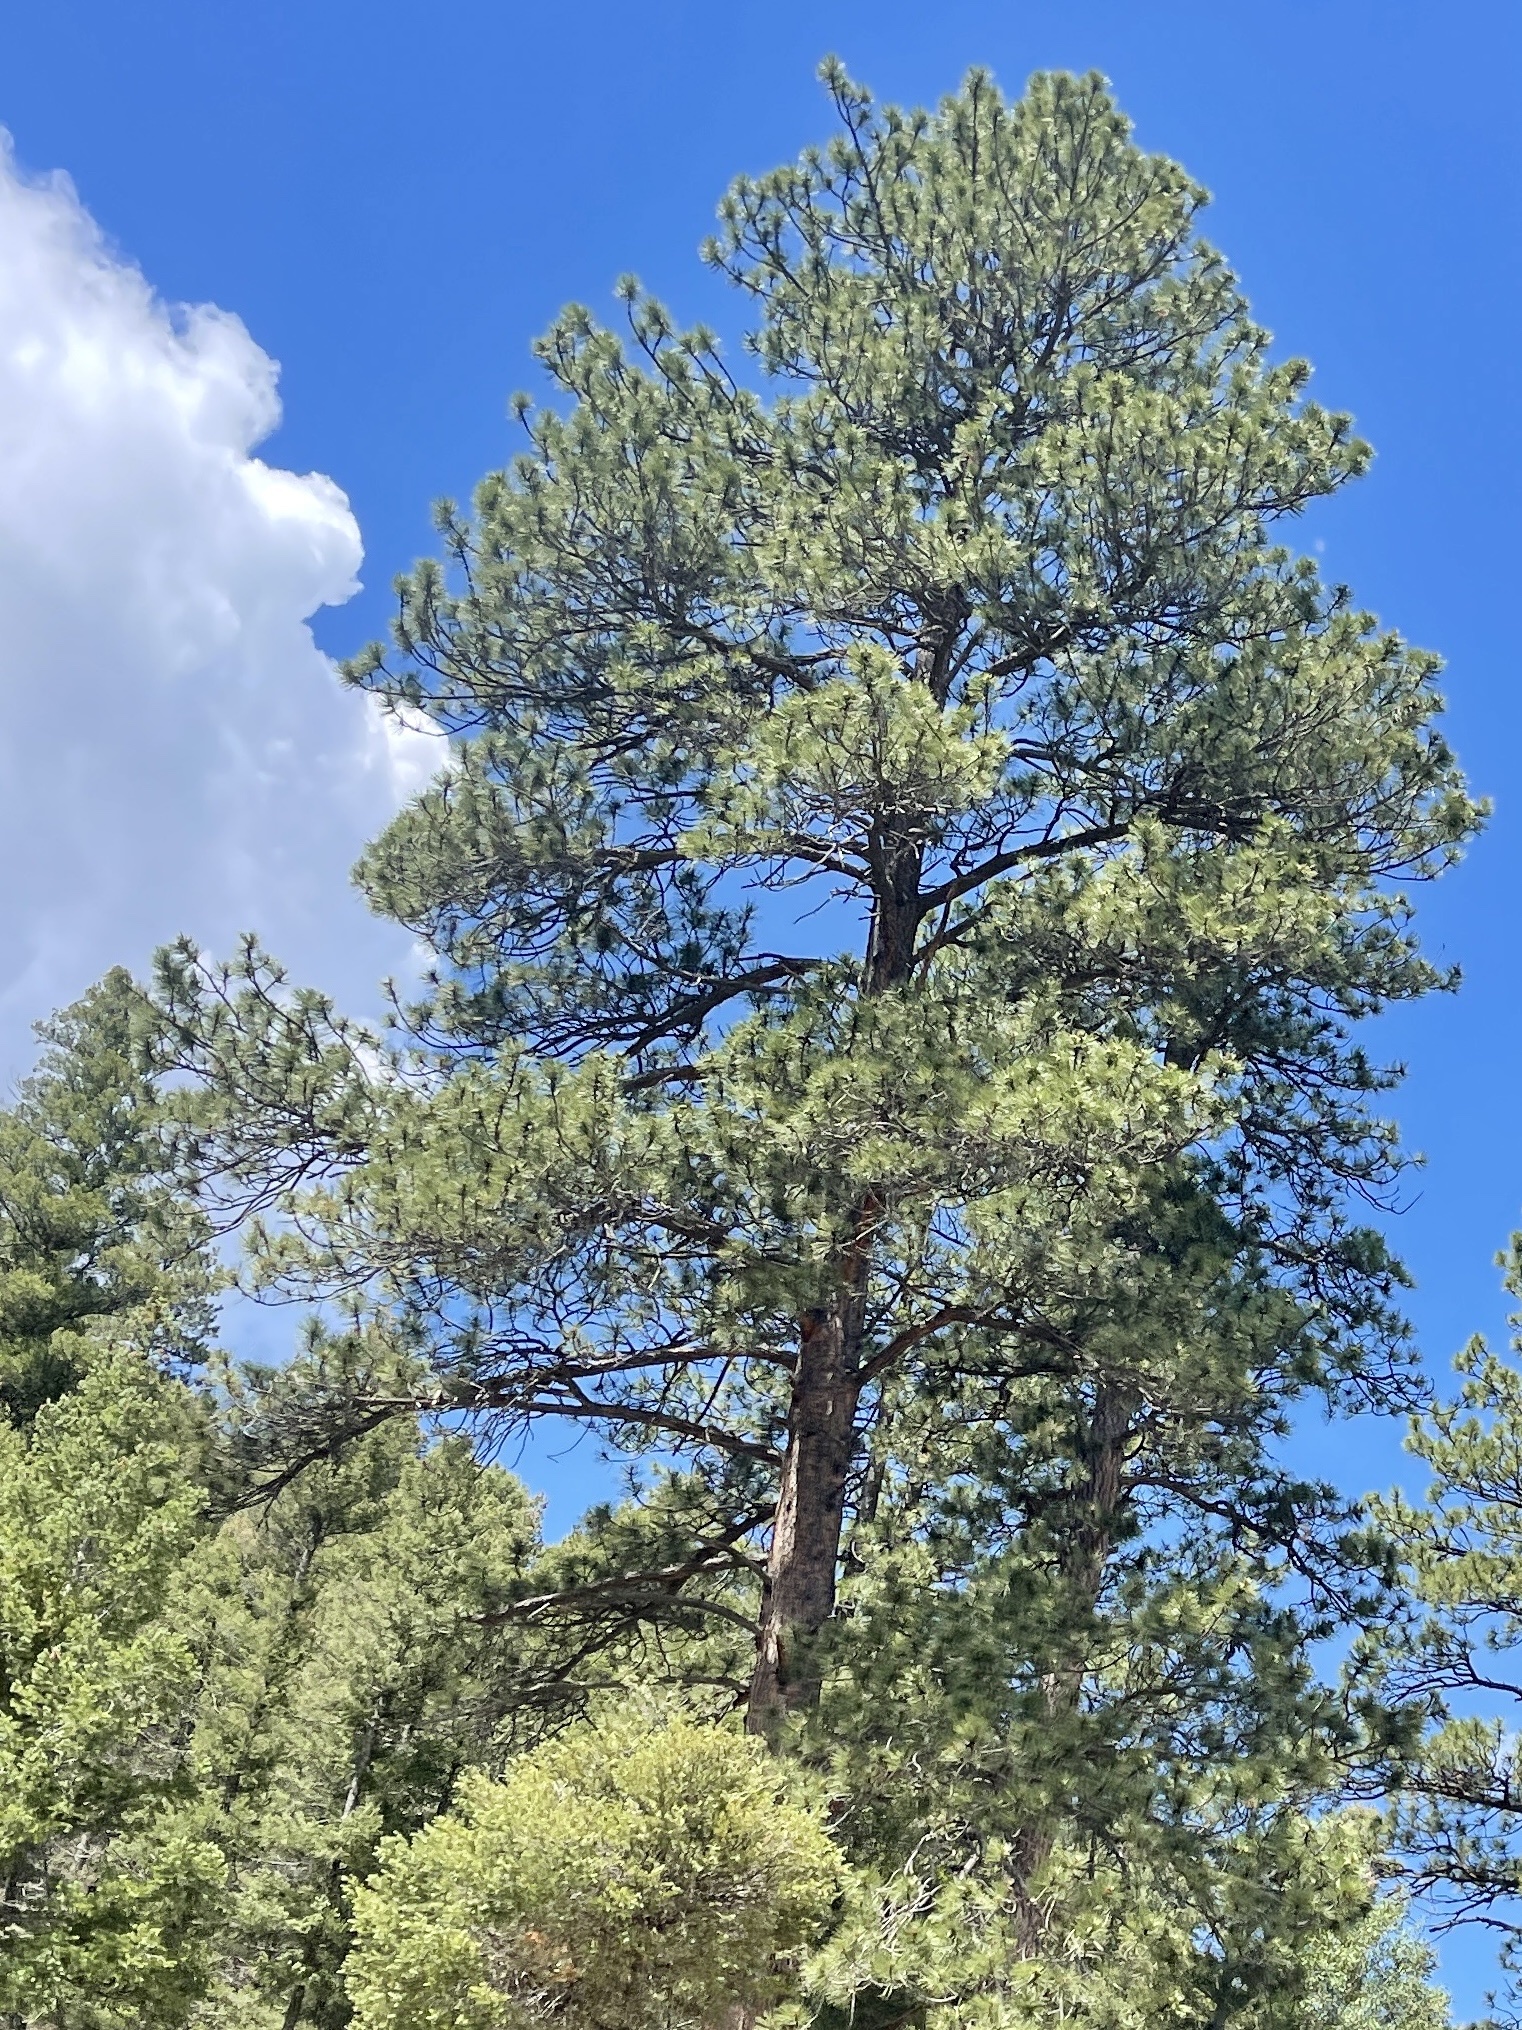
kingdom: Plantae
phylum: Tracheophyta
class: Pinopsida
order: Pinales
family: Pinaceae
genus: Pinus
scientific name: Pinus ponderosa
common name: Western yellow-pine
